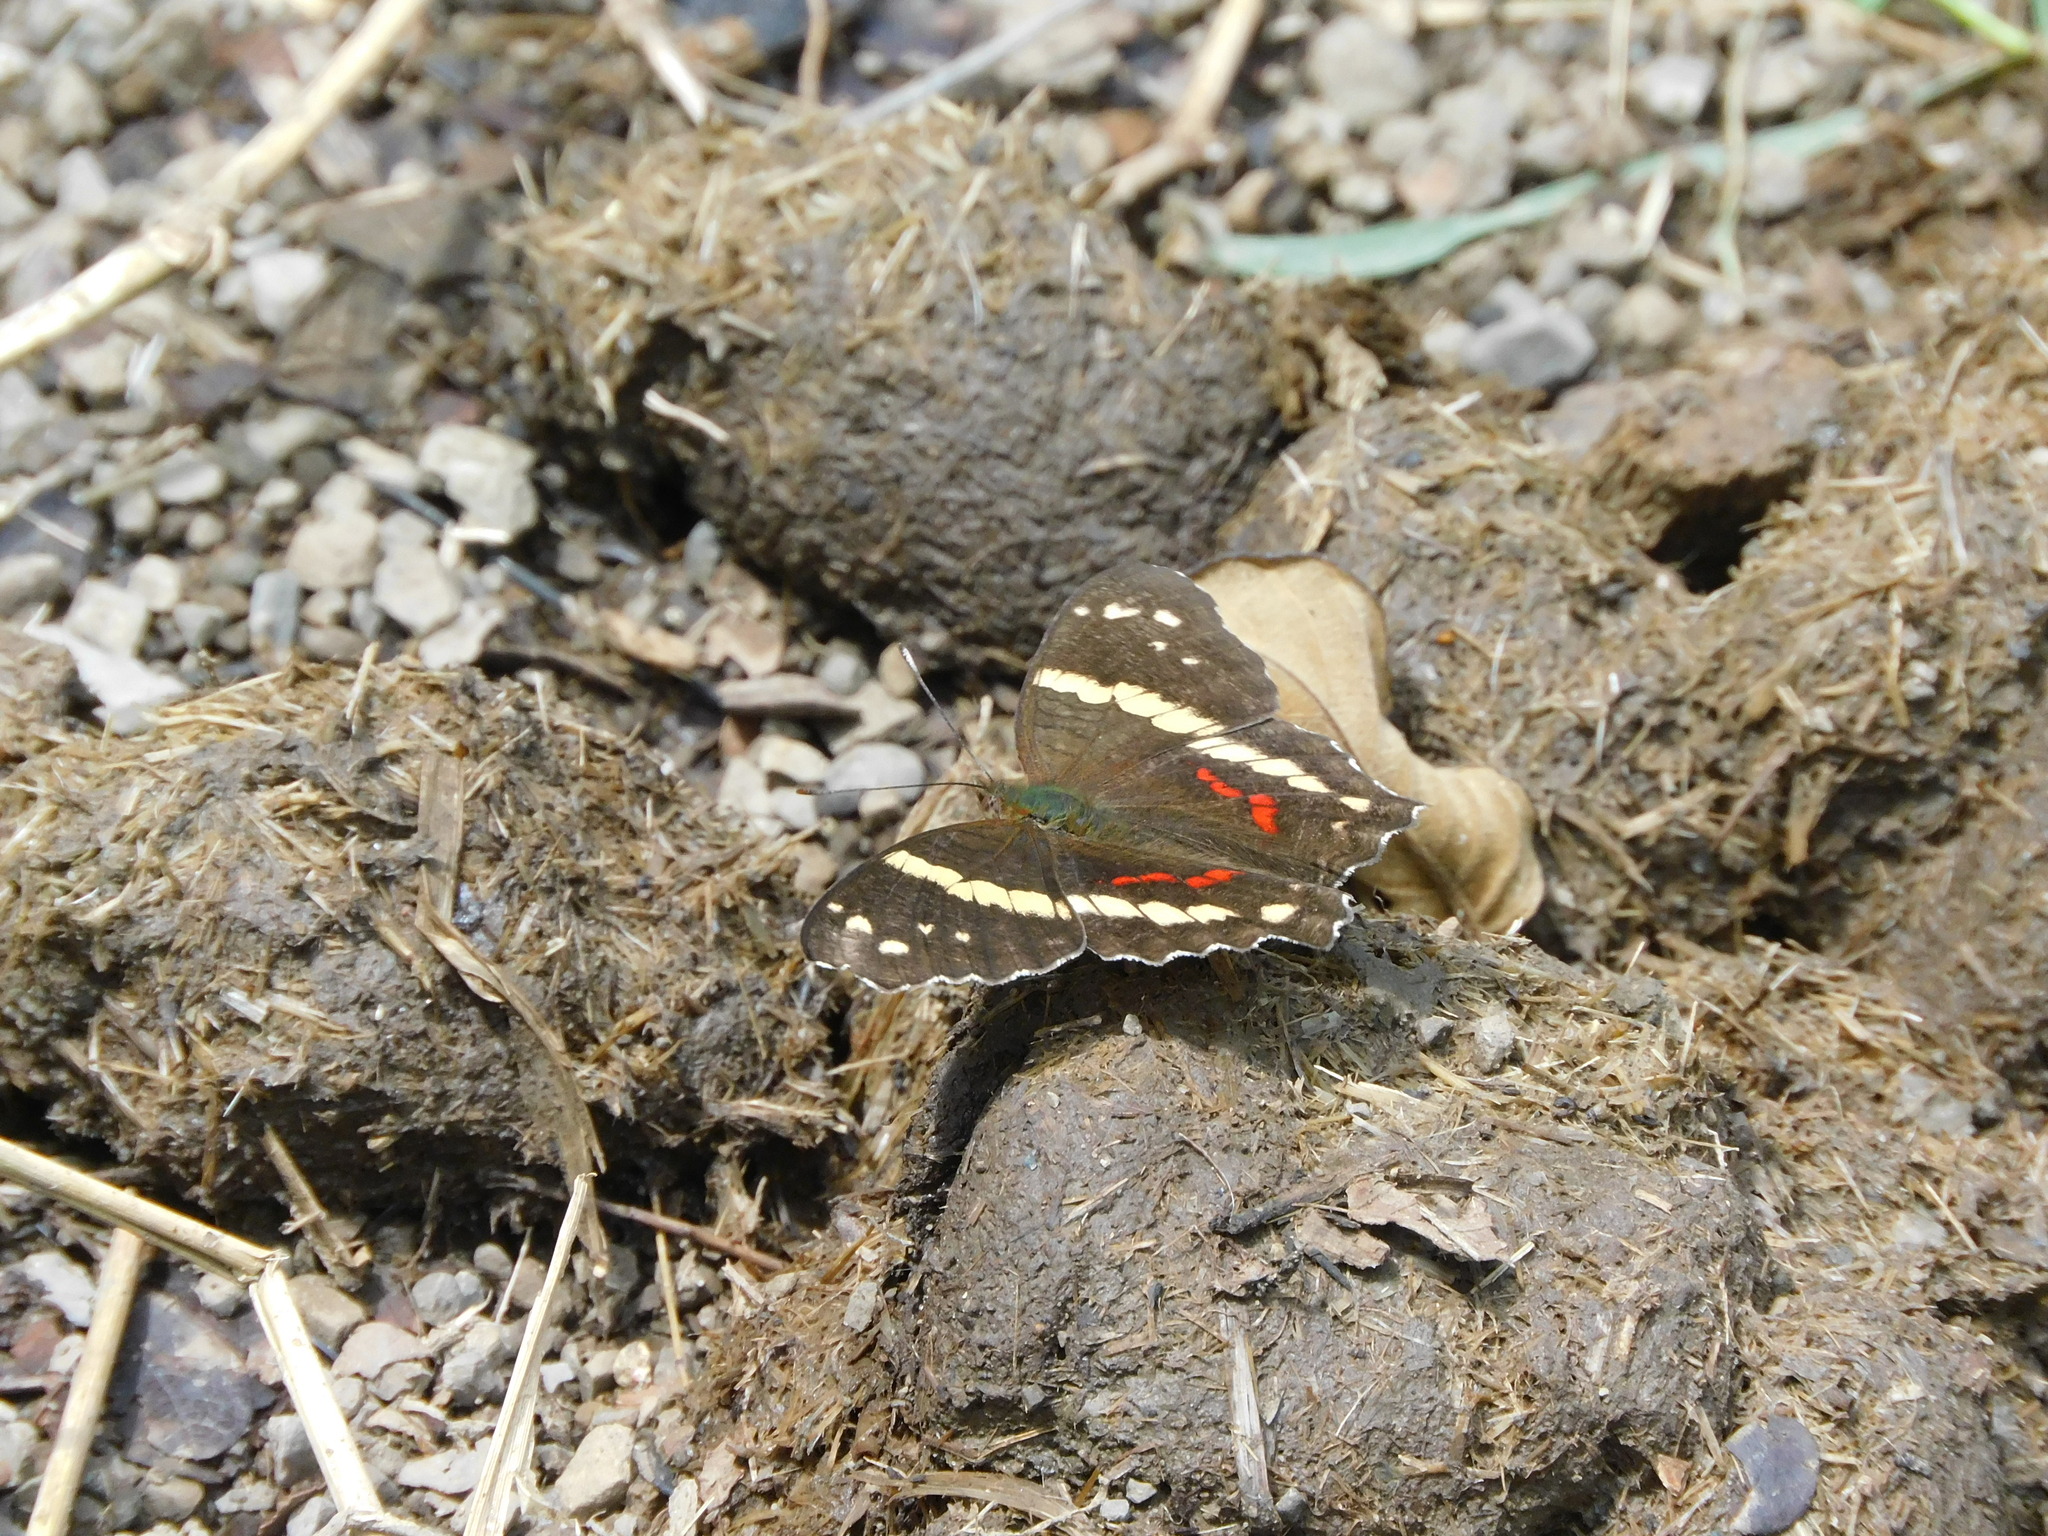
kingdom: Animalia
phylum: Arthropoda
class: Insecta
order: Lepidoptera
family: Nymphalidae
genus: Anartia
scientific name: Anartia fatima
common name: Banded peacock
